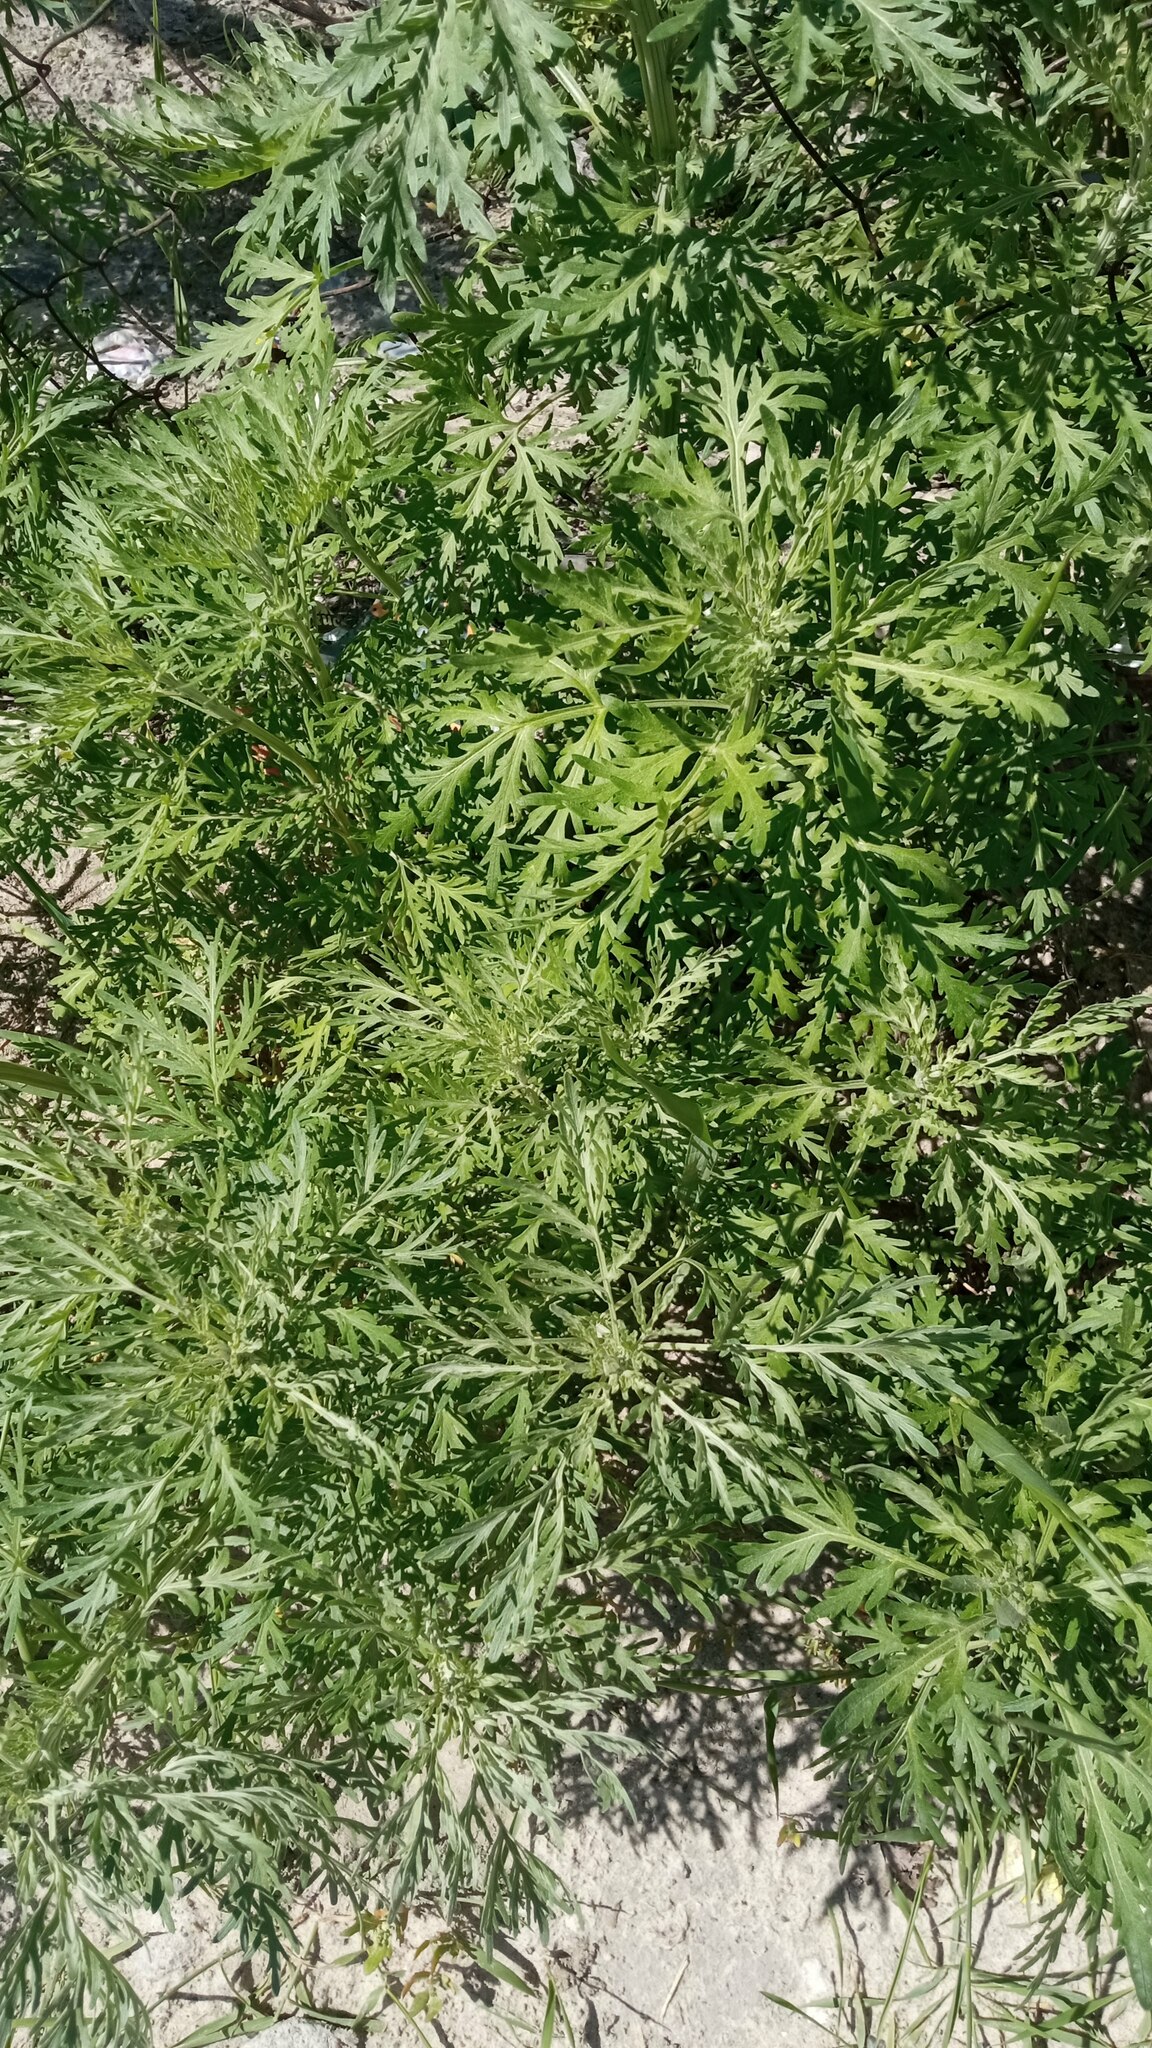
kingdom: Plantae
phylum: Tracheophyta
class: Magnoliopsida
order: Asterales
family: Asteraceae
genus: Artemisia
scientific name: Artemisia sieversiana
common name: Sieversian wormwood
